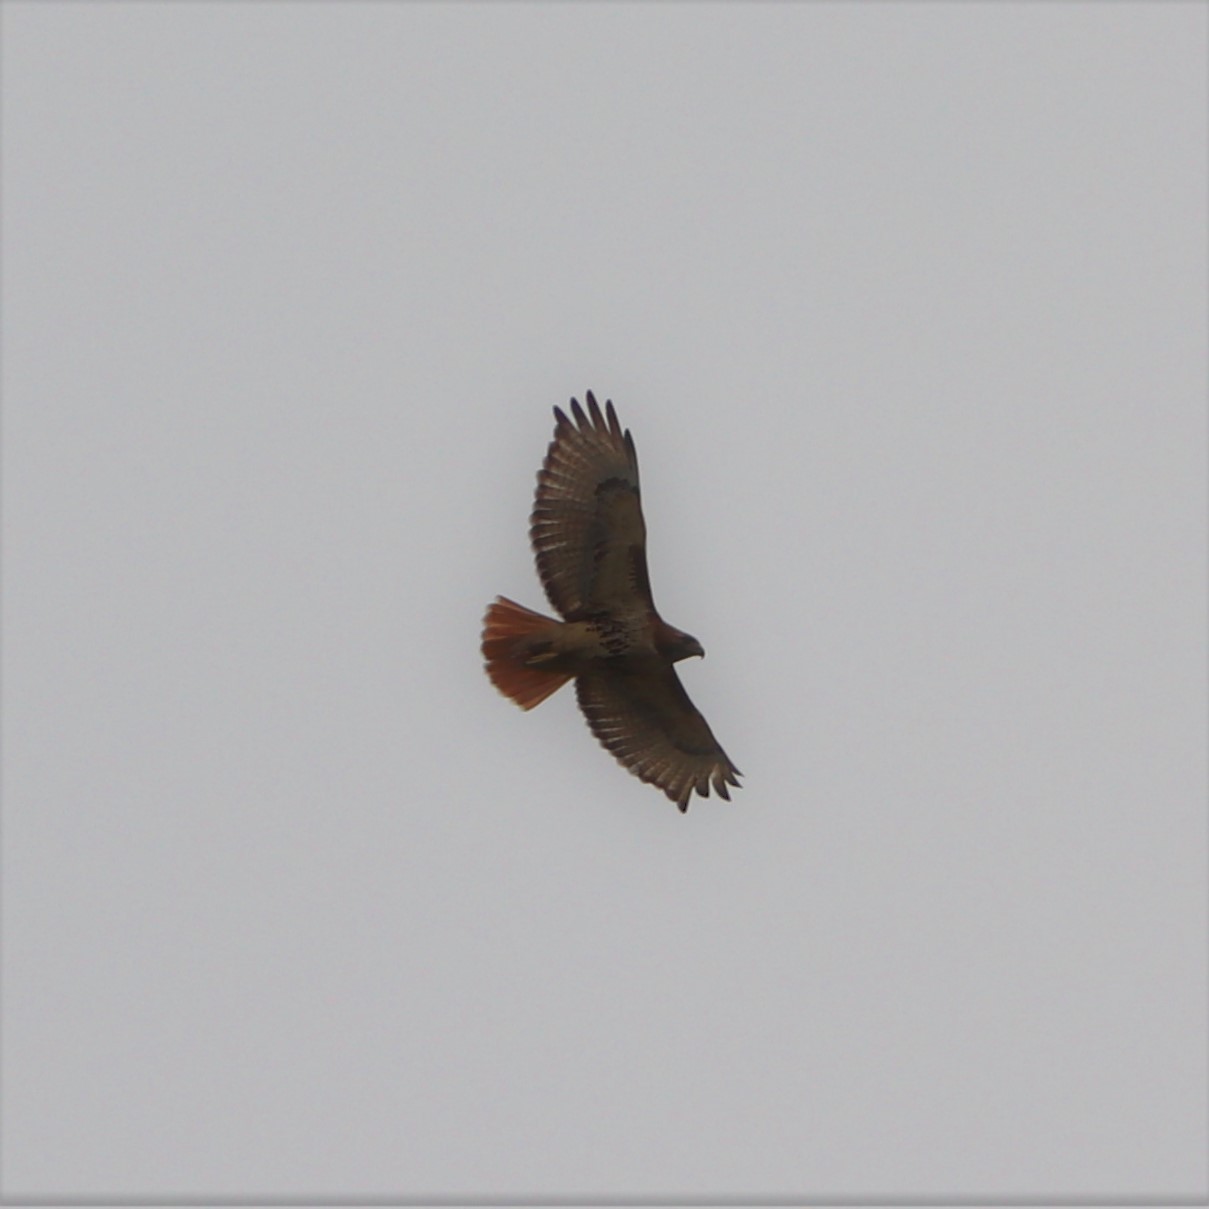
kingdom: Animalia
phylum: Chordata
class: Aves
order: Accipitriformes
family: Accipitridae
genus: Buteo
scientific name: Buteo jamaicensis
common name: Red-tailed hawk
